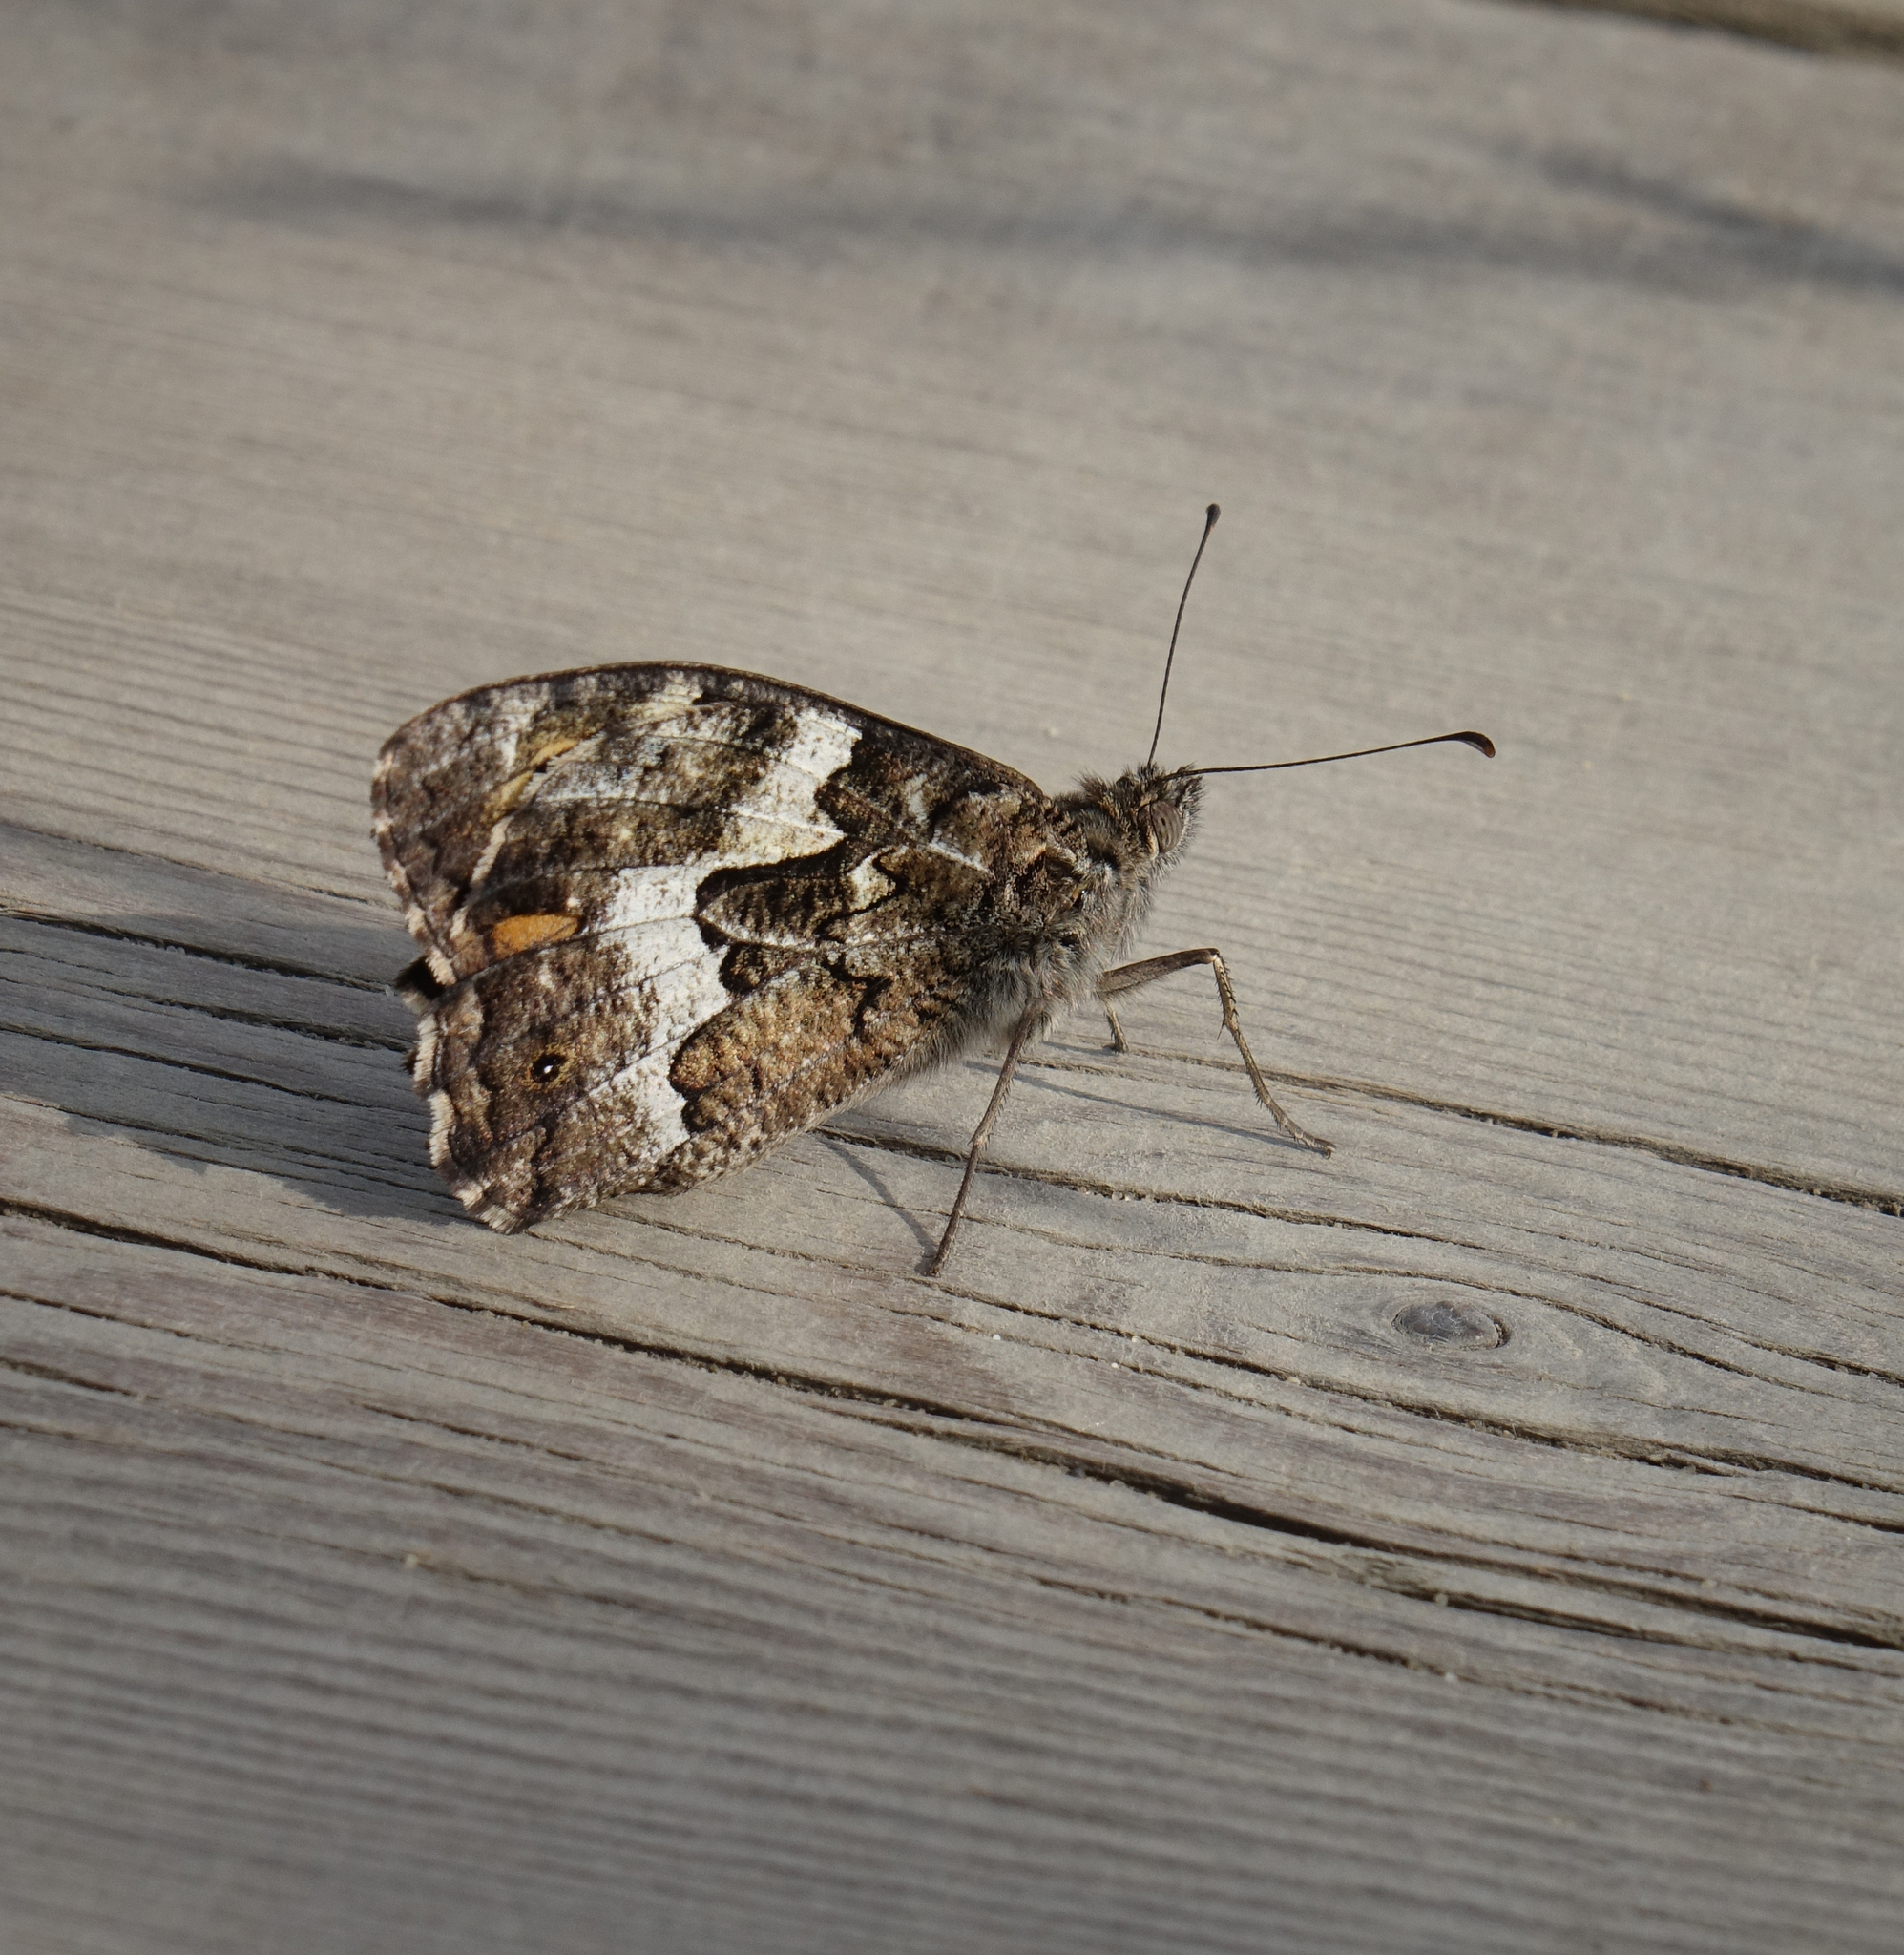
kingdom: Animalia
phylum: Arthropoda
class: Insecta
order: Lepidoptera
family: Nymphalidae
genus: Hipparchia
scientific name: Hipparchia pellucida
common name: Lesbos grayling
